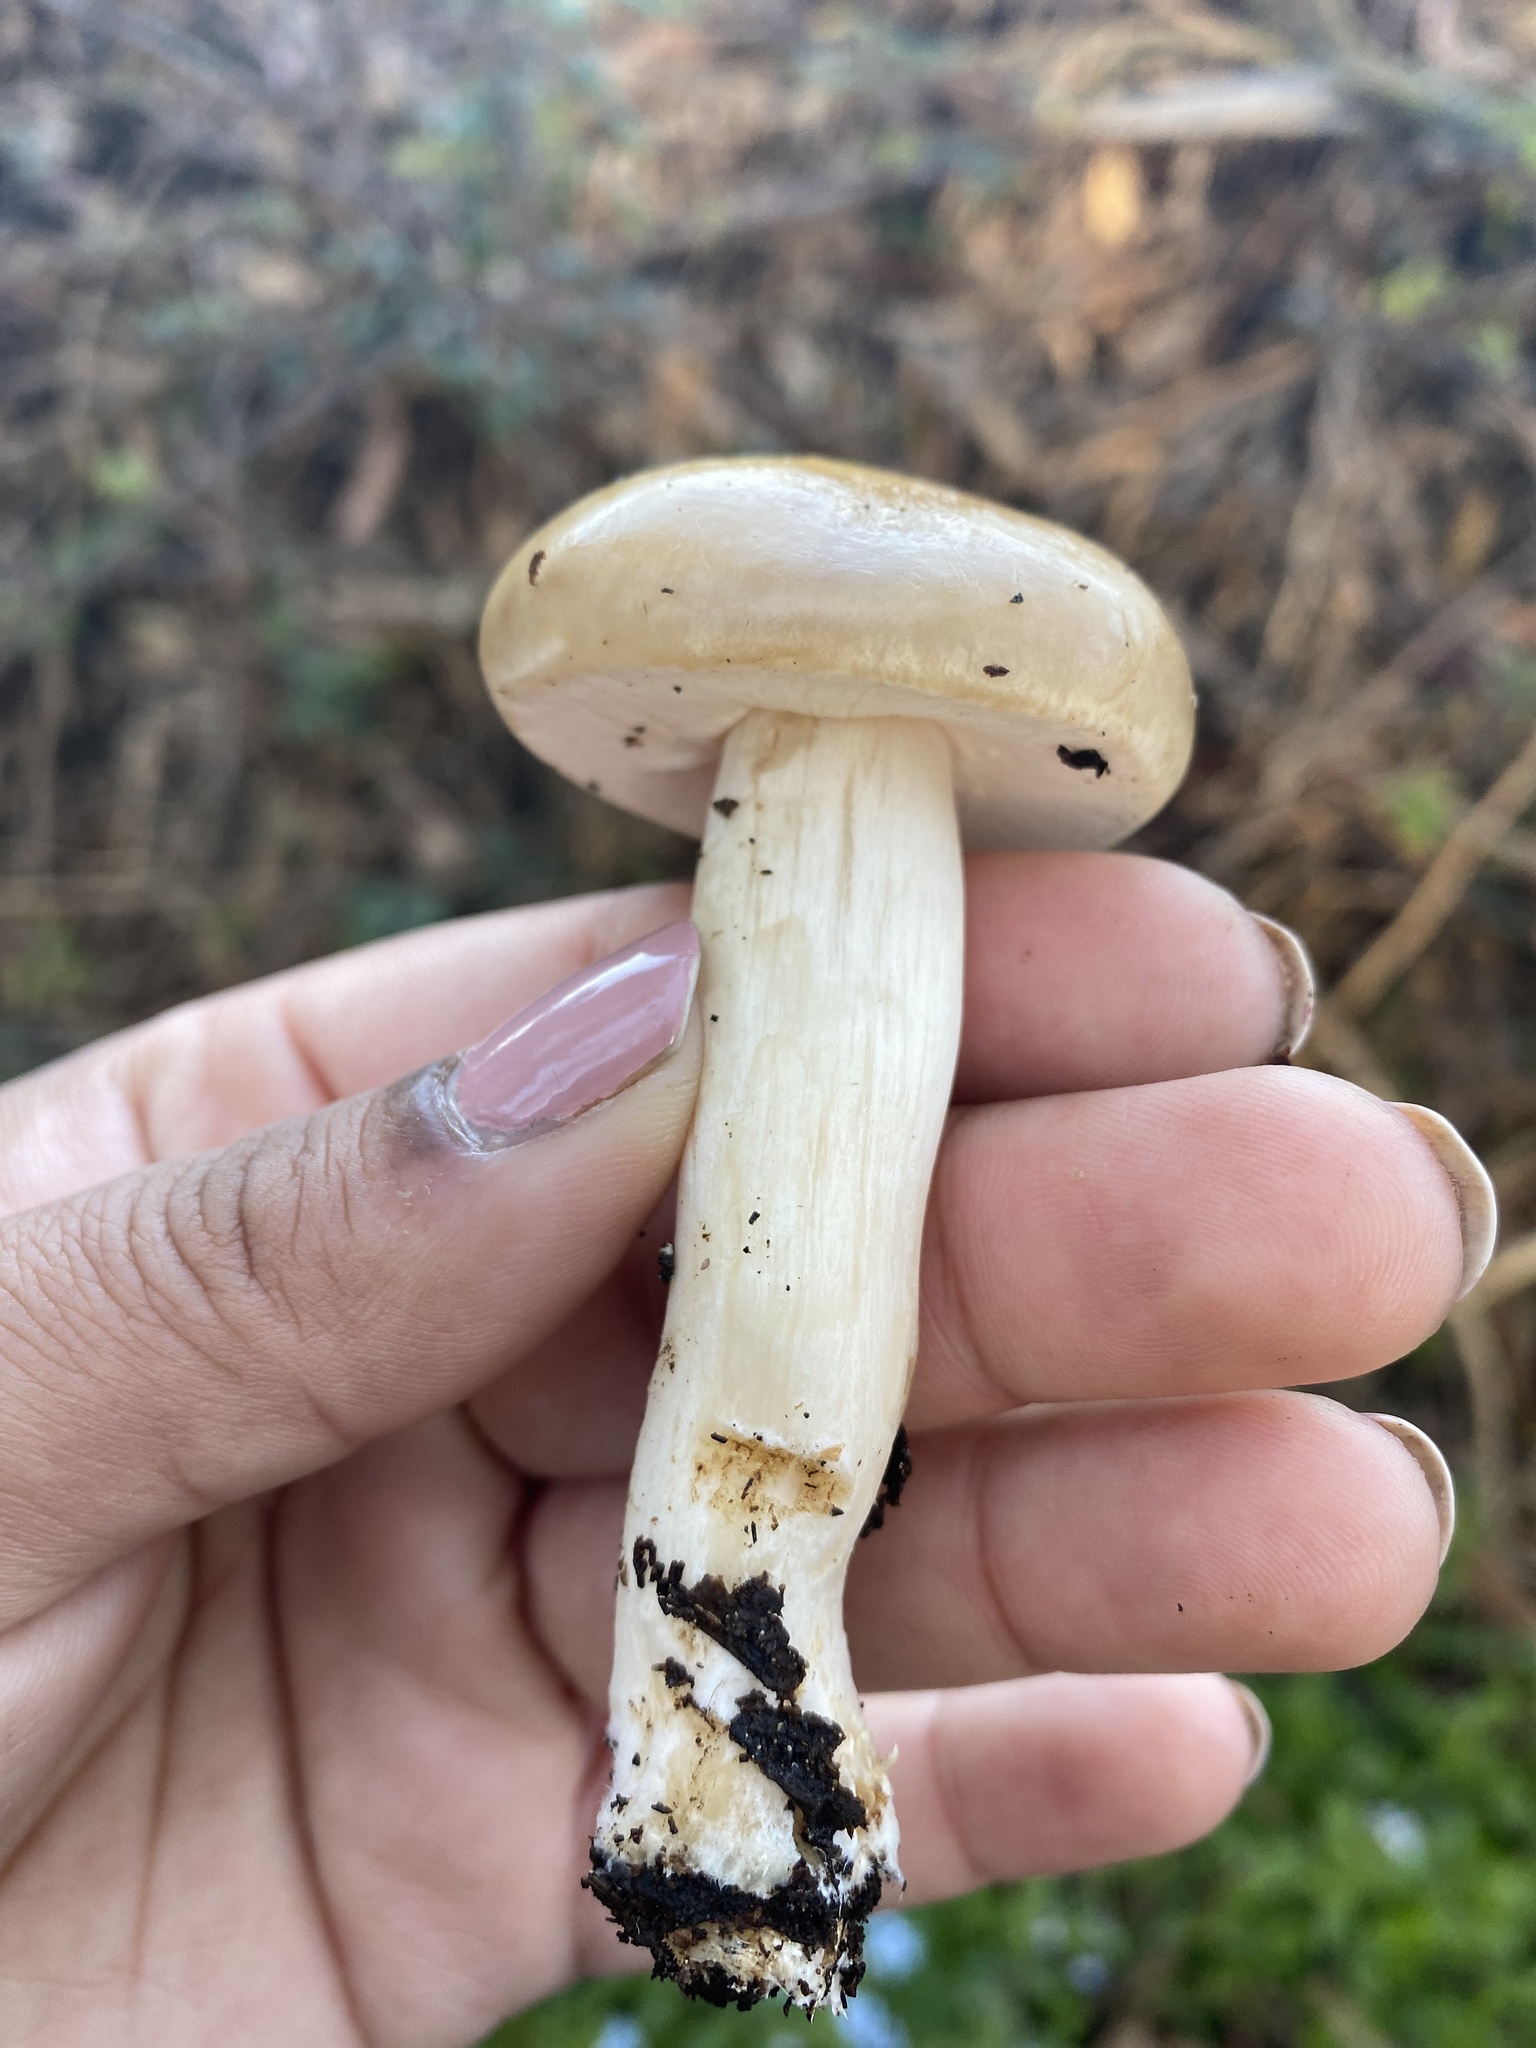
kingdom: Fungi
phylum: Basidiomycota
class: Agaricomycetes
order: Agaricales
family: Strophariaceae
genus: Agrocybe
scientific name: Agrocybe praecox
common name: Spring fieldcap
